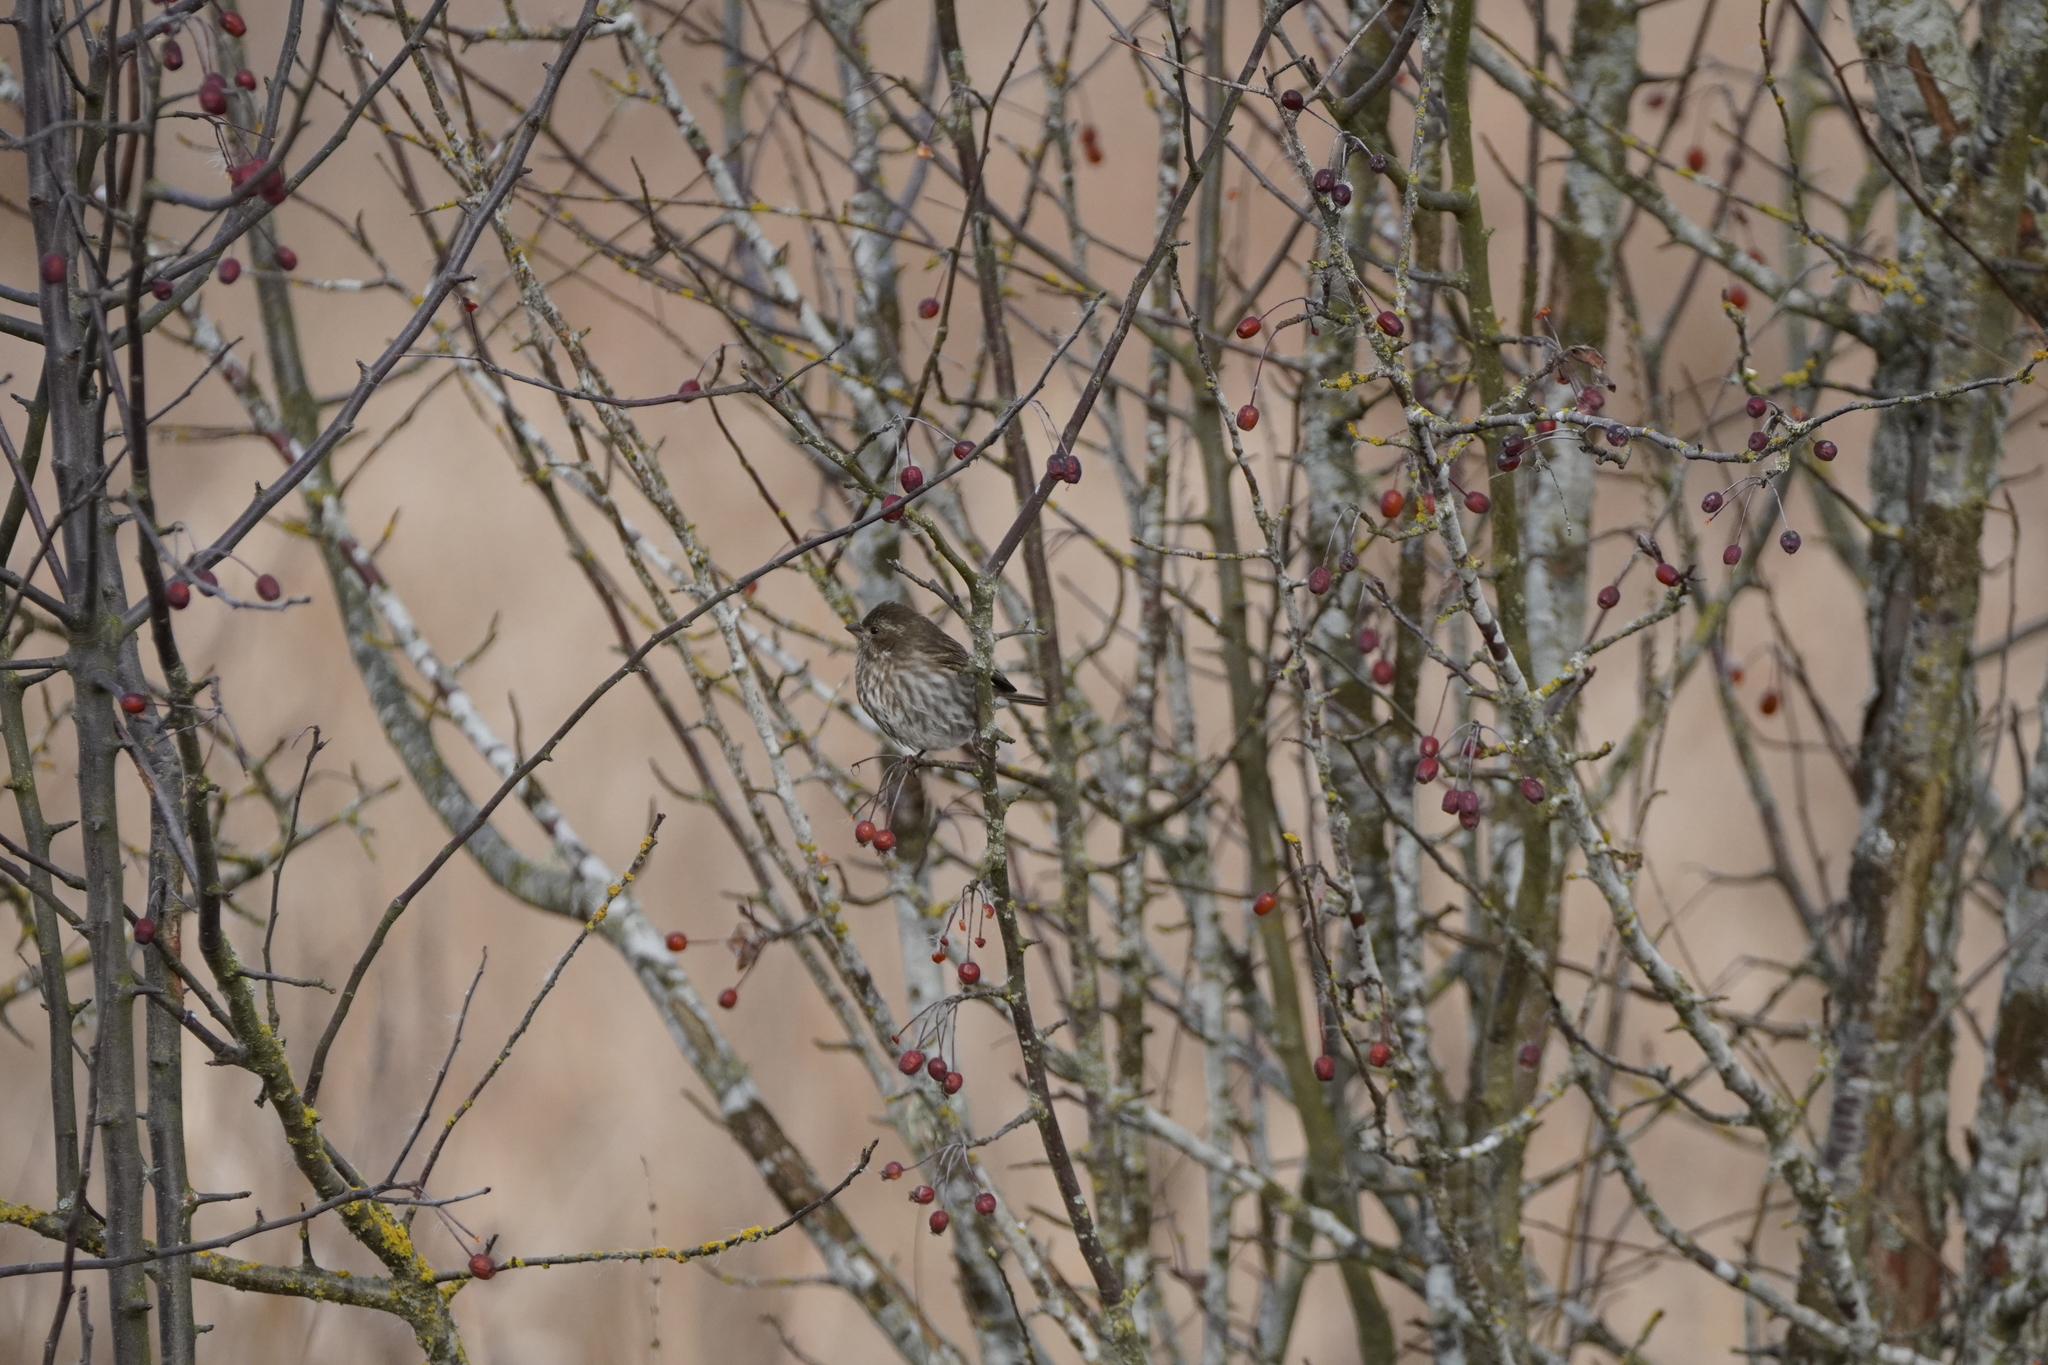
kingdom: Animalia
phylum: Chordata
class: Aves
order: Passeriformes
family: Fringillidae
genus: Haemorhous
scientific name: Haemorhous purpureus
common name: Purple finch
